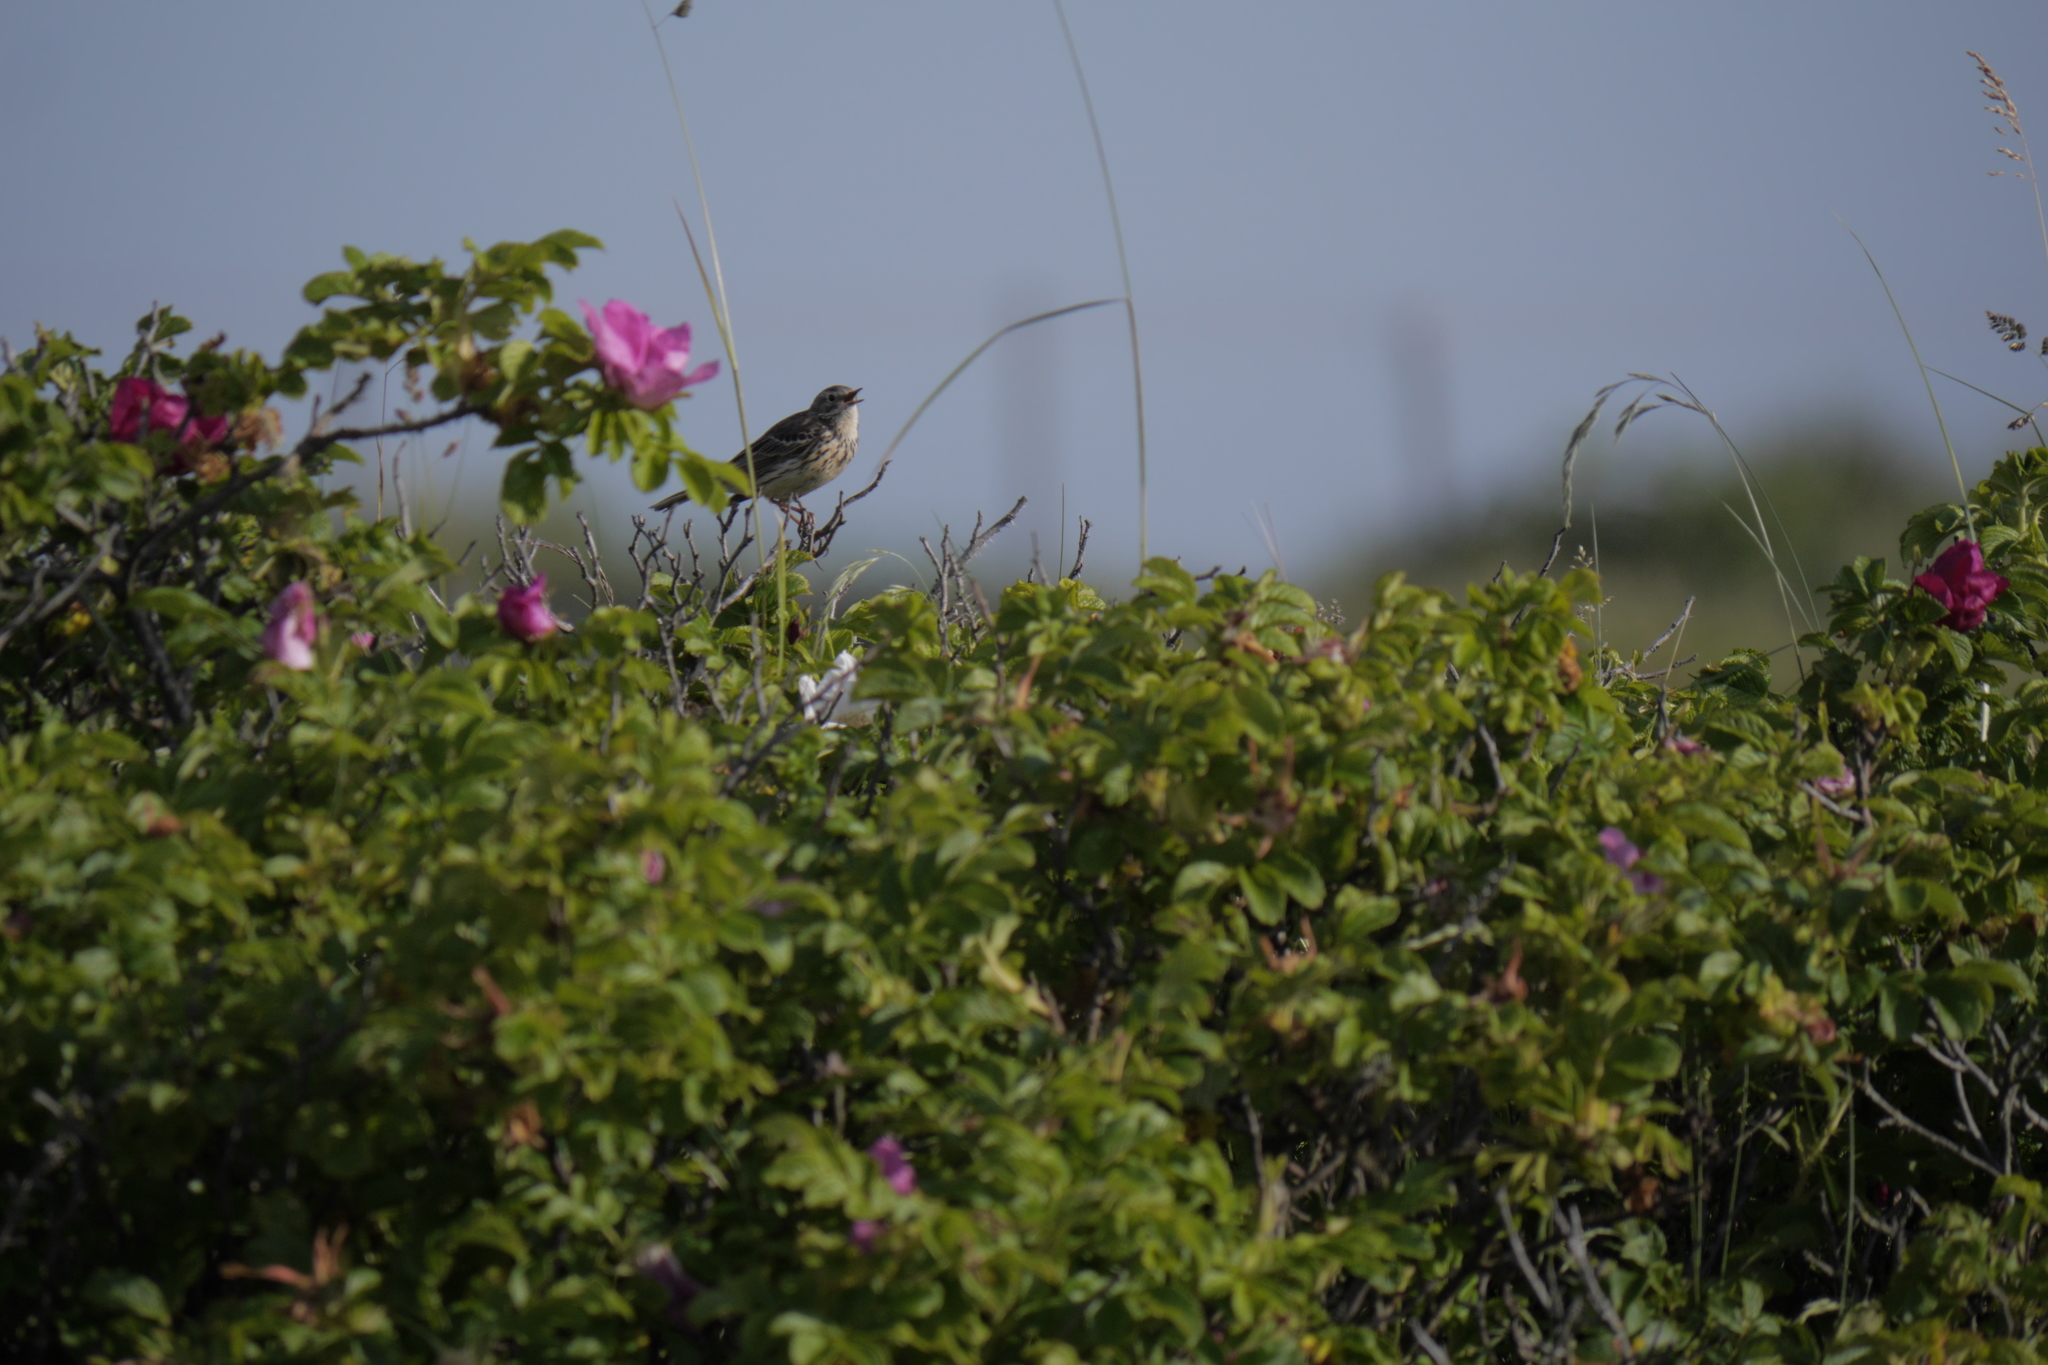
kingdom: Animalia
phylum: Chordata
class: Aves
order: Passeriformes
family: Motacillidae
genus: Anthus
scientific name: Anthus pratensis
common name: Meadow pipit
